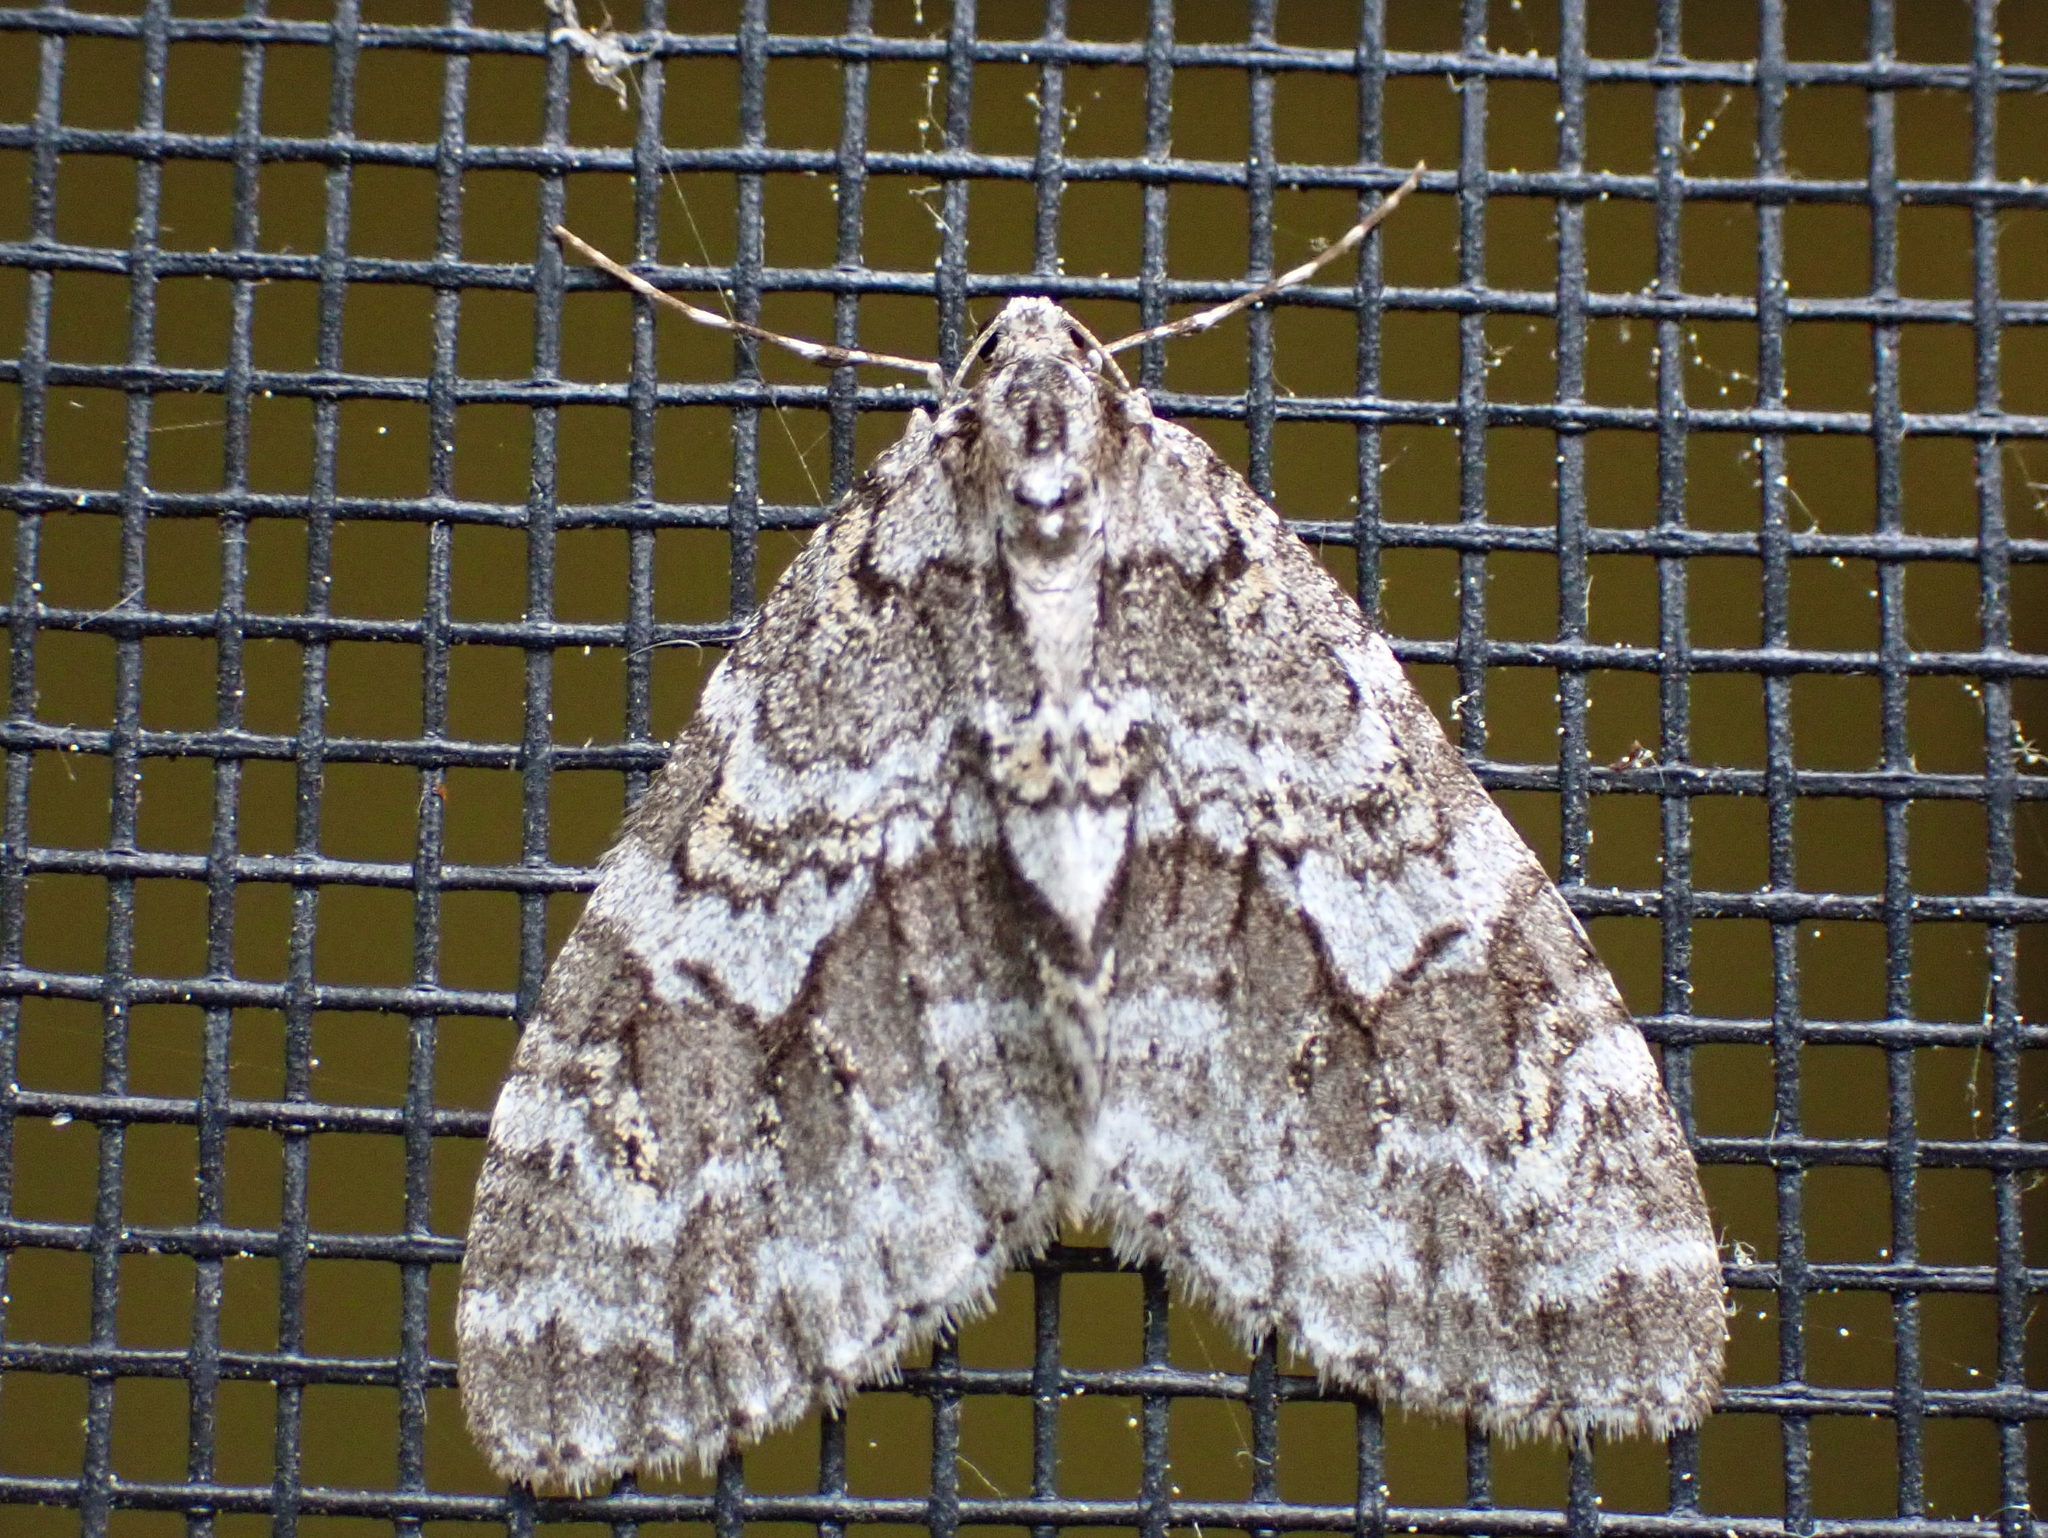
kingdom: Animalia
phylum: Arthropoda
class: Insecta
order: Lepidoptera
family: Geometridae
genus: Cladara
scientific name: Cladara limitaria
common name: Mottled gray carpet
